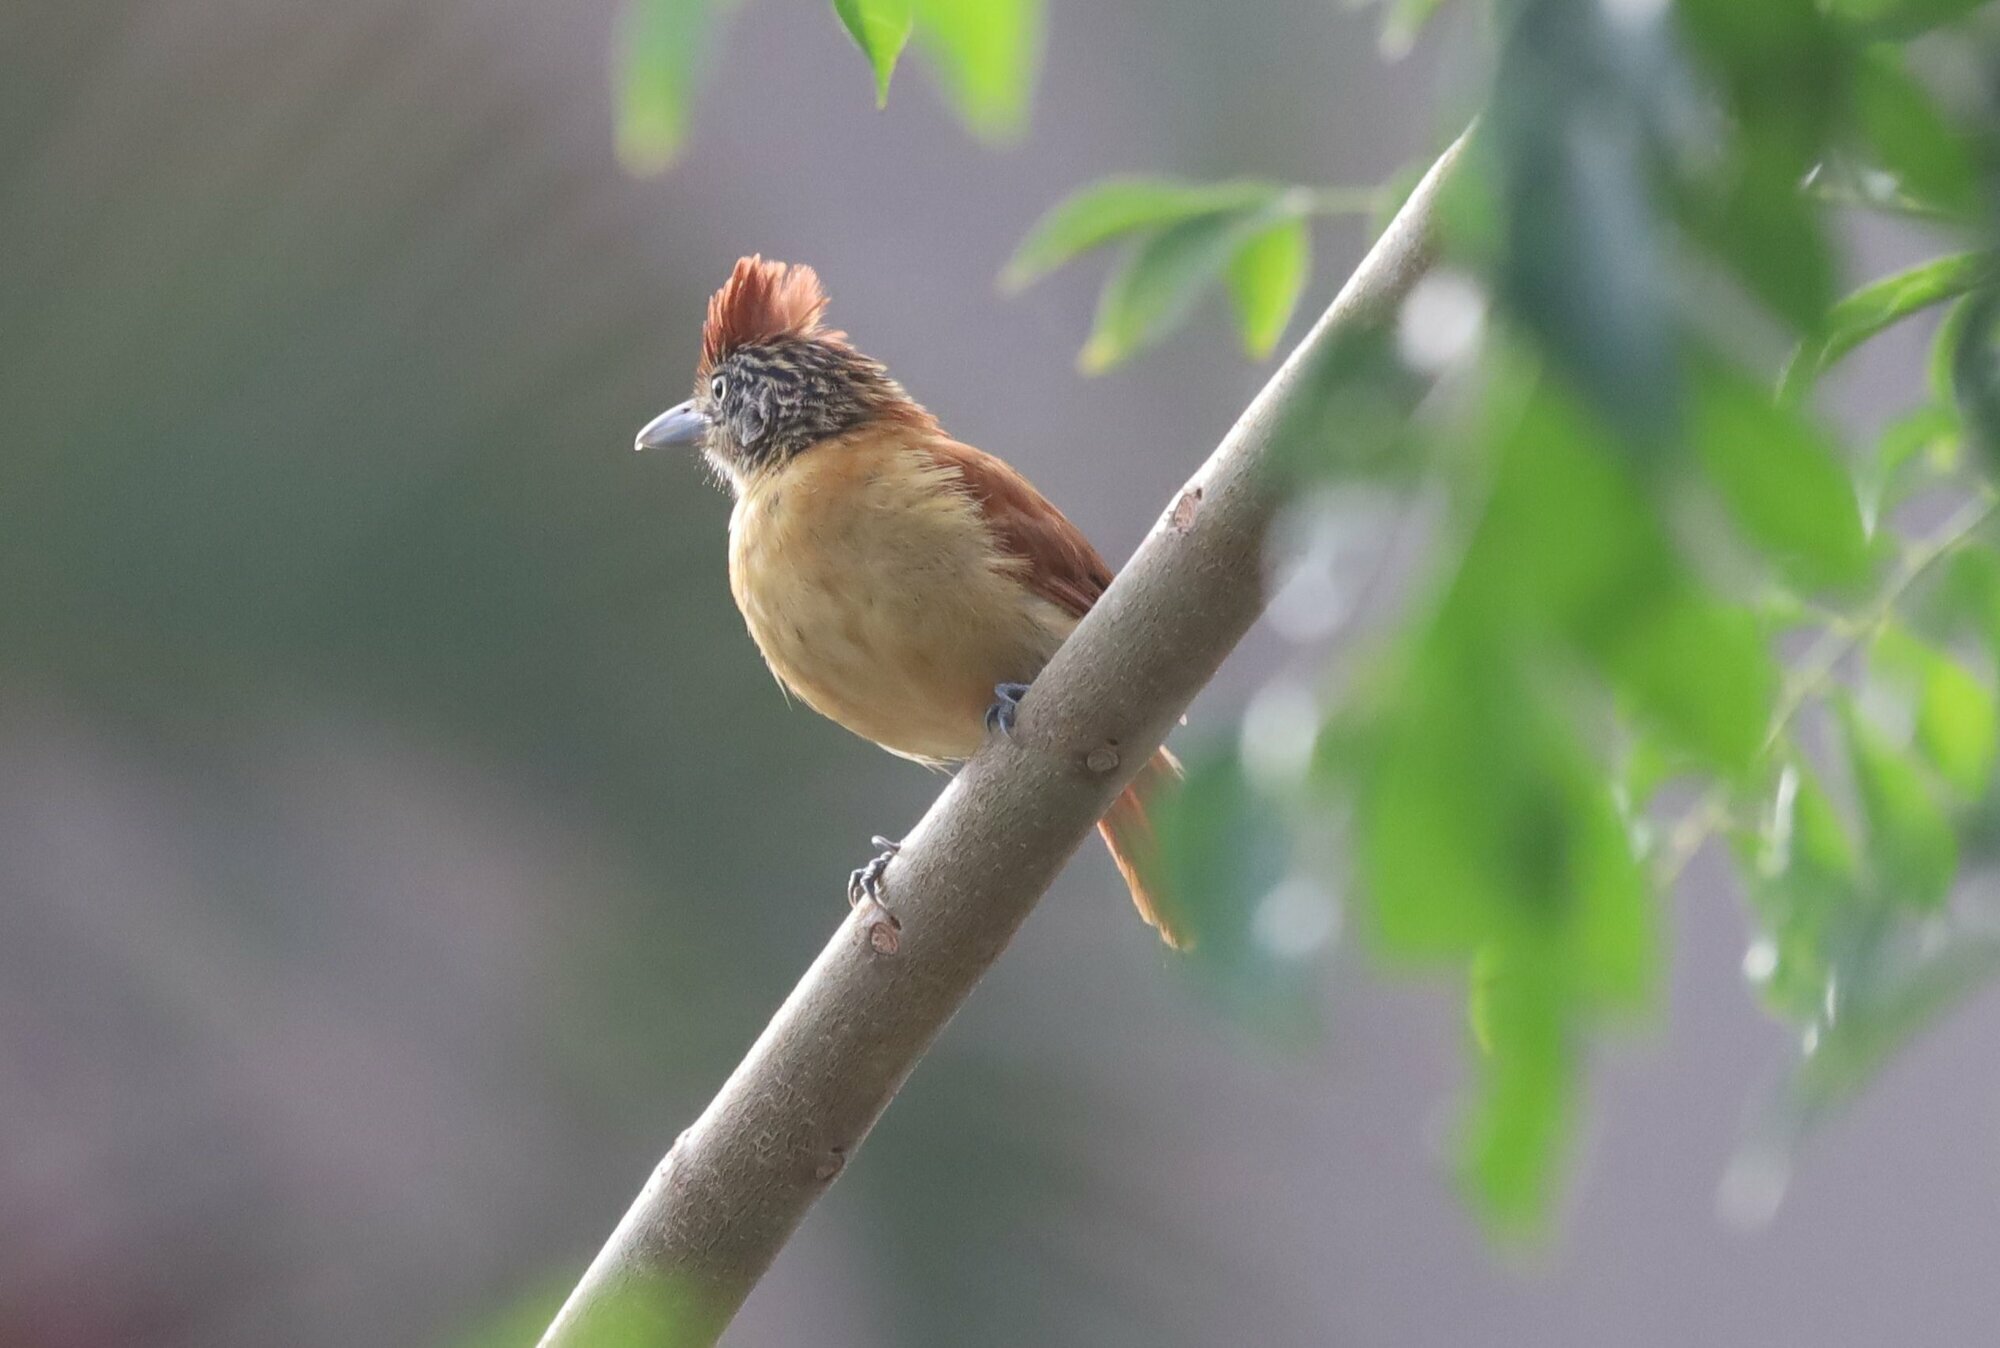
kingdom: Animalia
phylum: Chordata
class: Aves
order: Passeriformes
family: Thamnophilidae
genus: Thamnophilus
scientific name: Thamnophilus doliatus
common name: Barred antshrike
